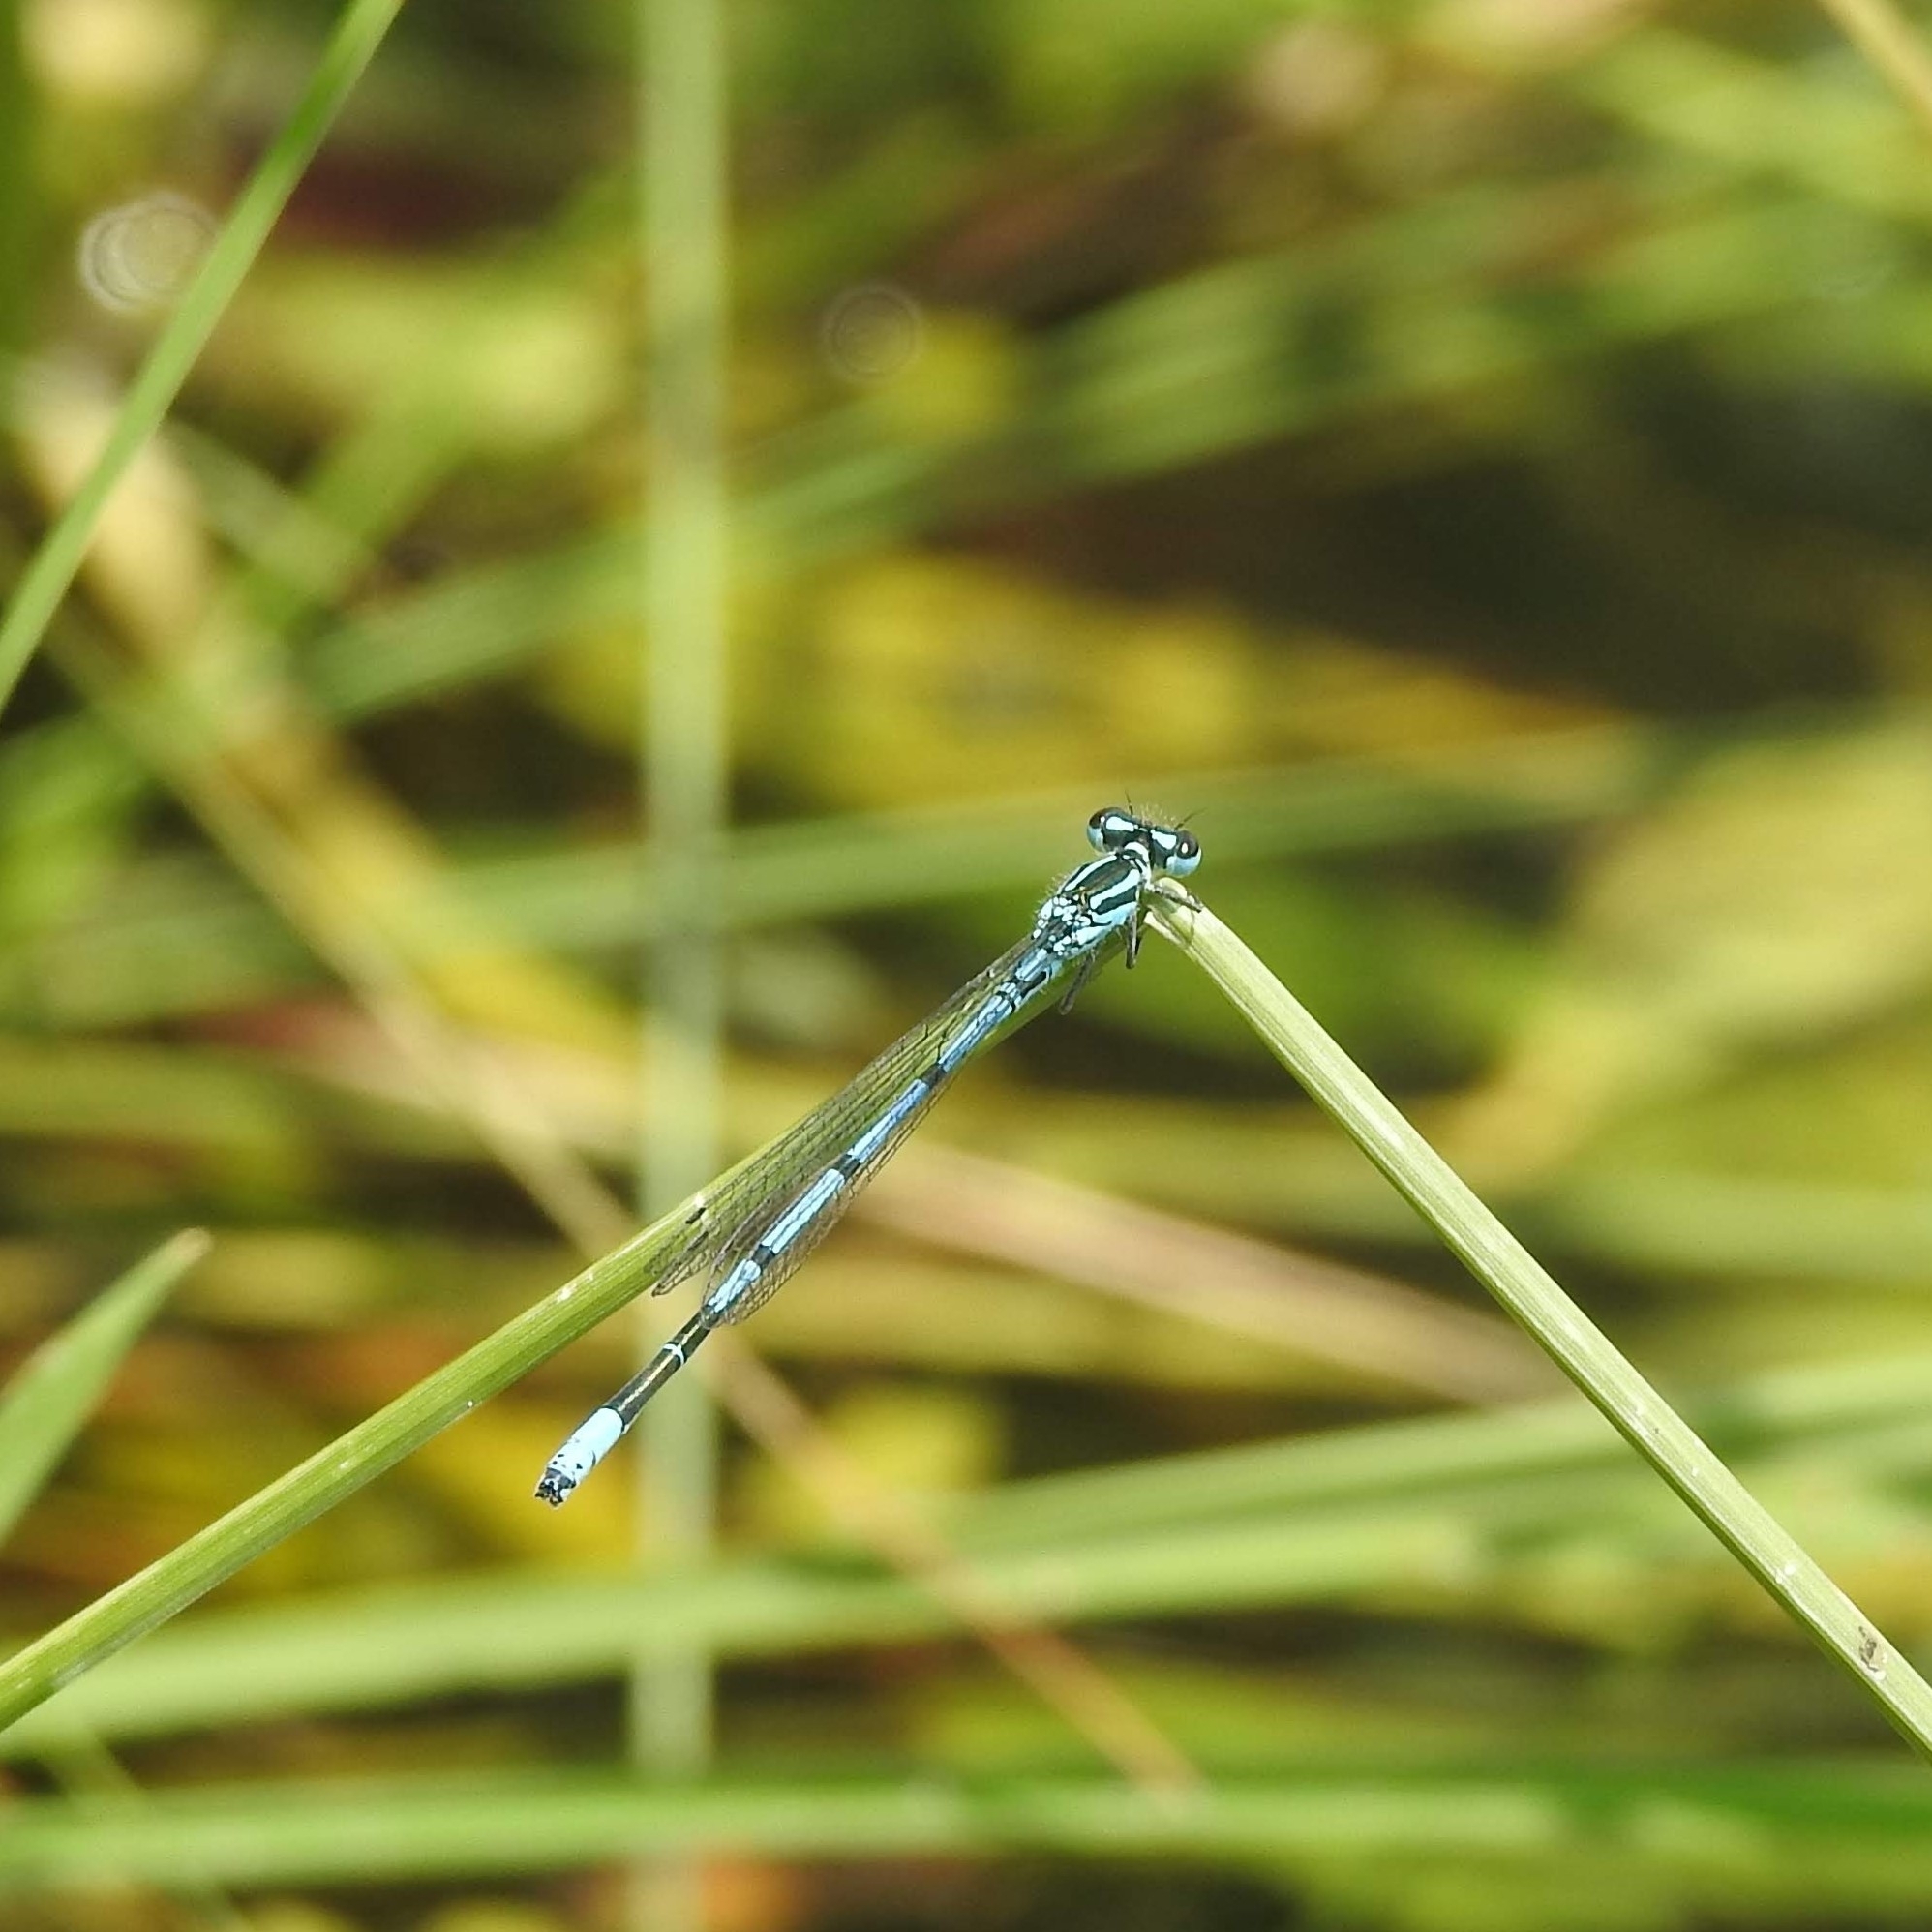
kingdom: Animalia
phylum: Arthropoda
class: Insecta
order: Odonata
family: Coenagrionidae
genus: Coenagrion
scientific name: Coenagrion puella
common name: Azure damselfly
